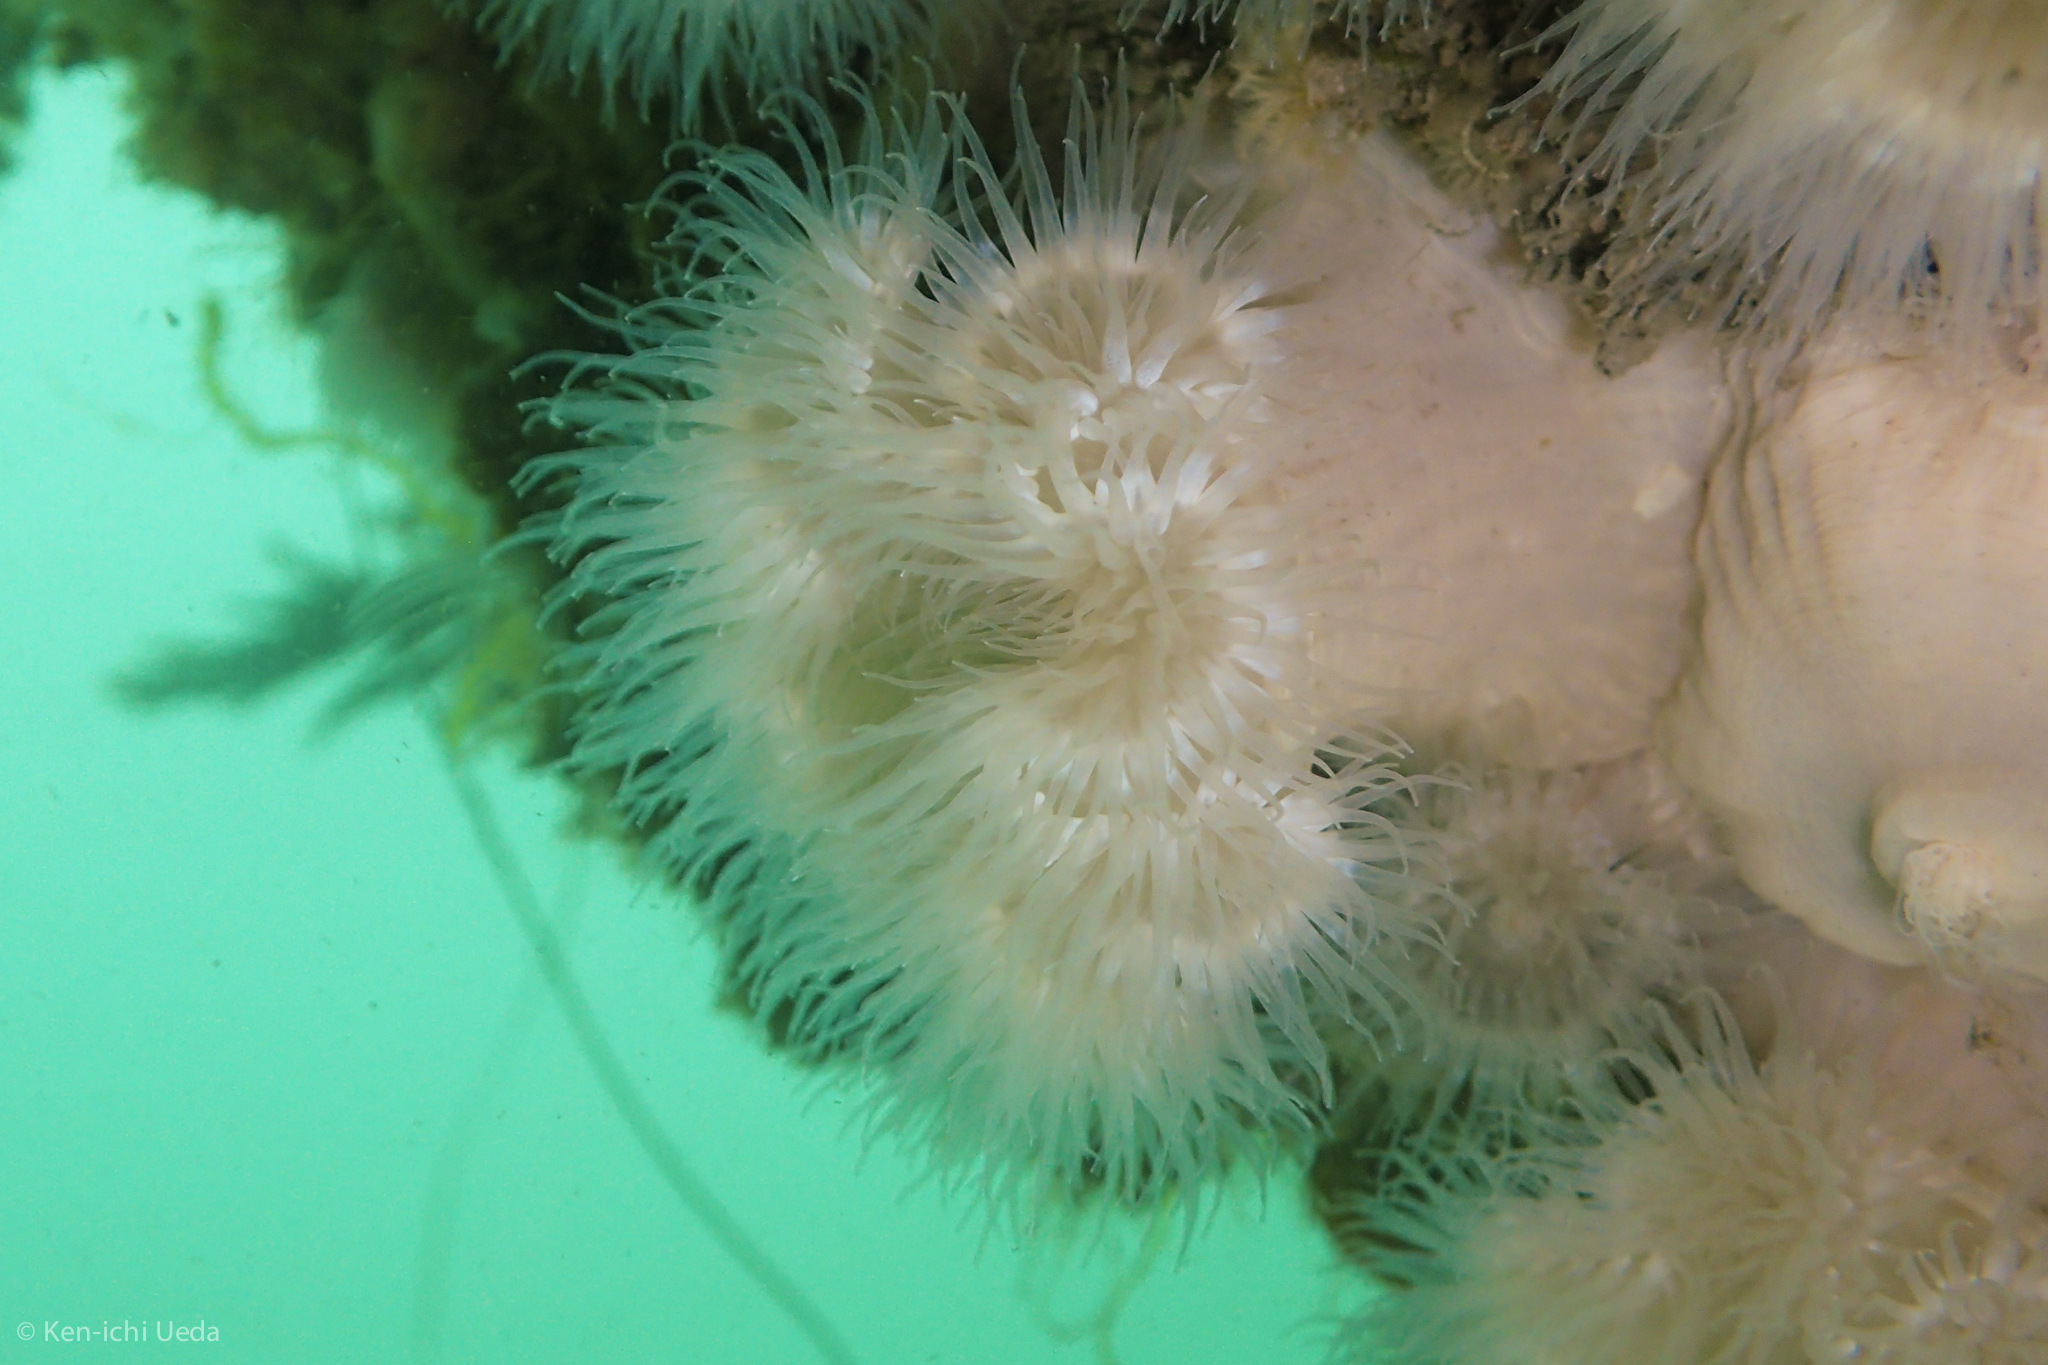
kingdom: Animalia
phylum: Cnidaria
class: Anthozoa
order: Actiniaria
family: Metridiidae
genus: Metridium
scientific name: Metridium senile
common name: Clonal plumose anemone
